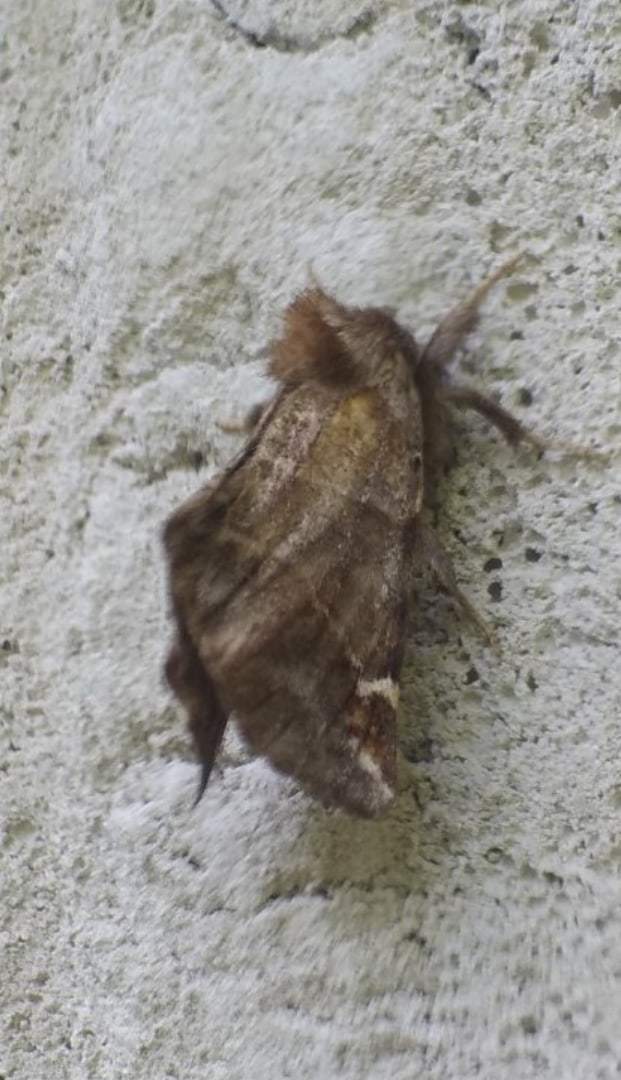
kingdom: Animalia
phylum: Arthropoda
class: Insecta
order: Lepidoptera
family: Notodontidae
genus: Pygaera
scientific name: Pygaera timon
